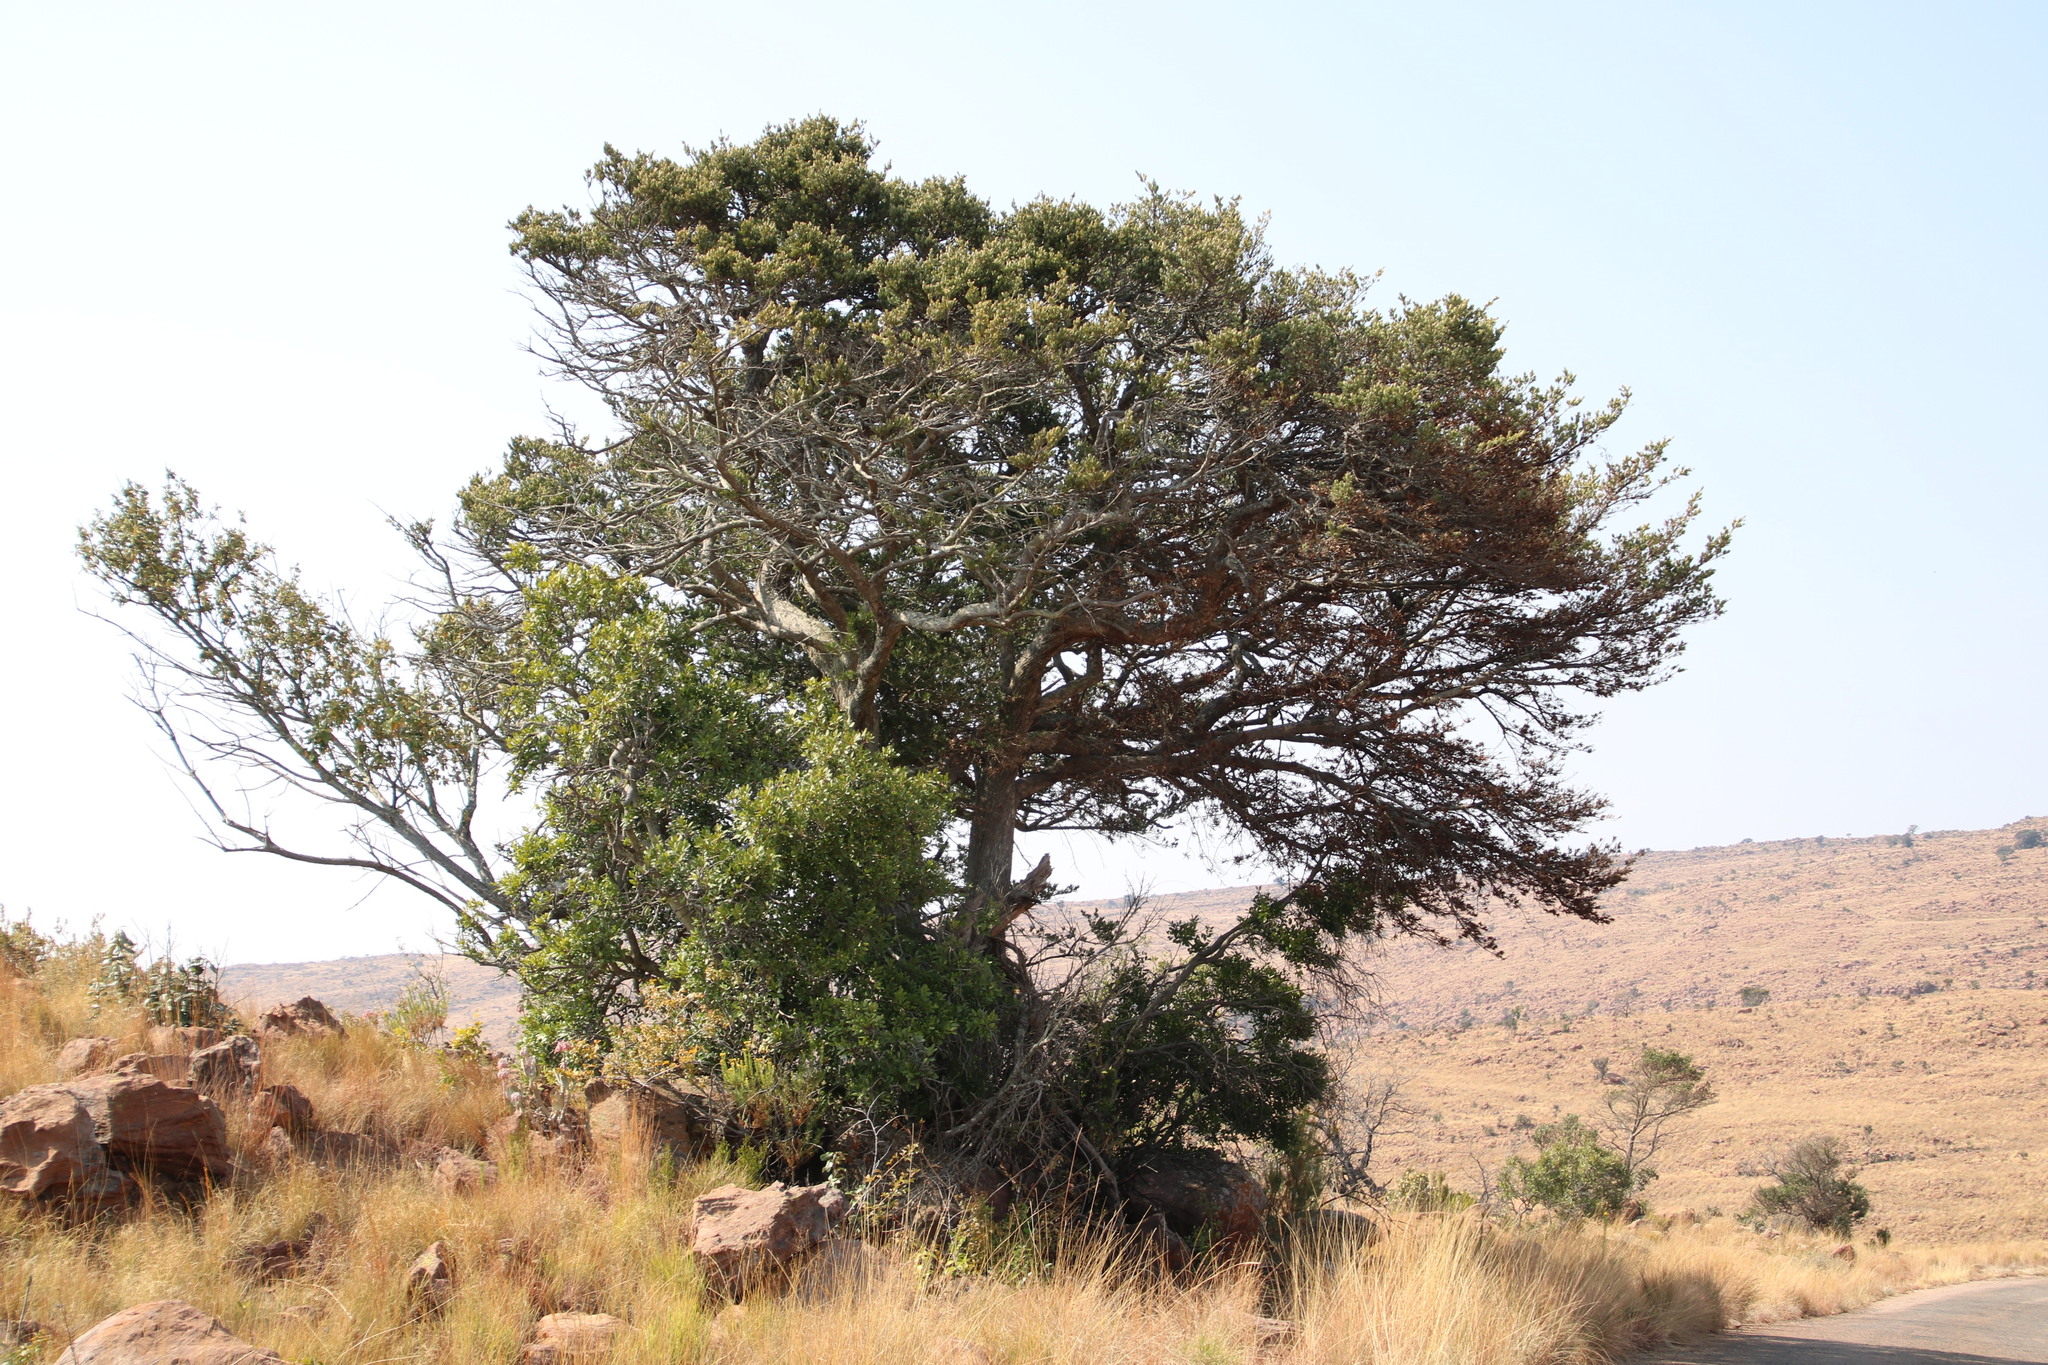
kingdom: Plantae
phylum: Tracheophyta
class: Pinopsida
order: Pinales
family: Podocarpaceae
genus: Podocarpus
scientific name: Podocarpus latifolius
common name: True yellowwood
